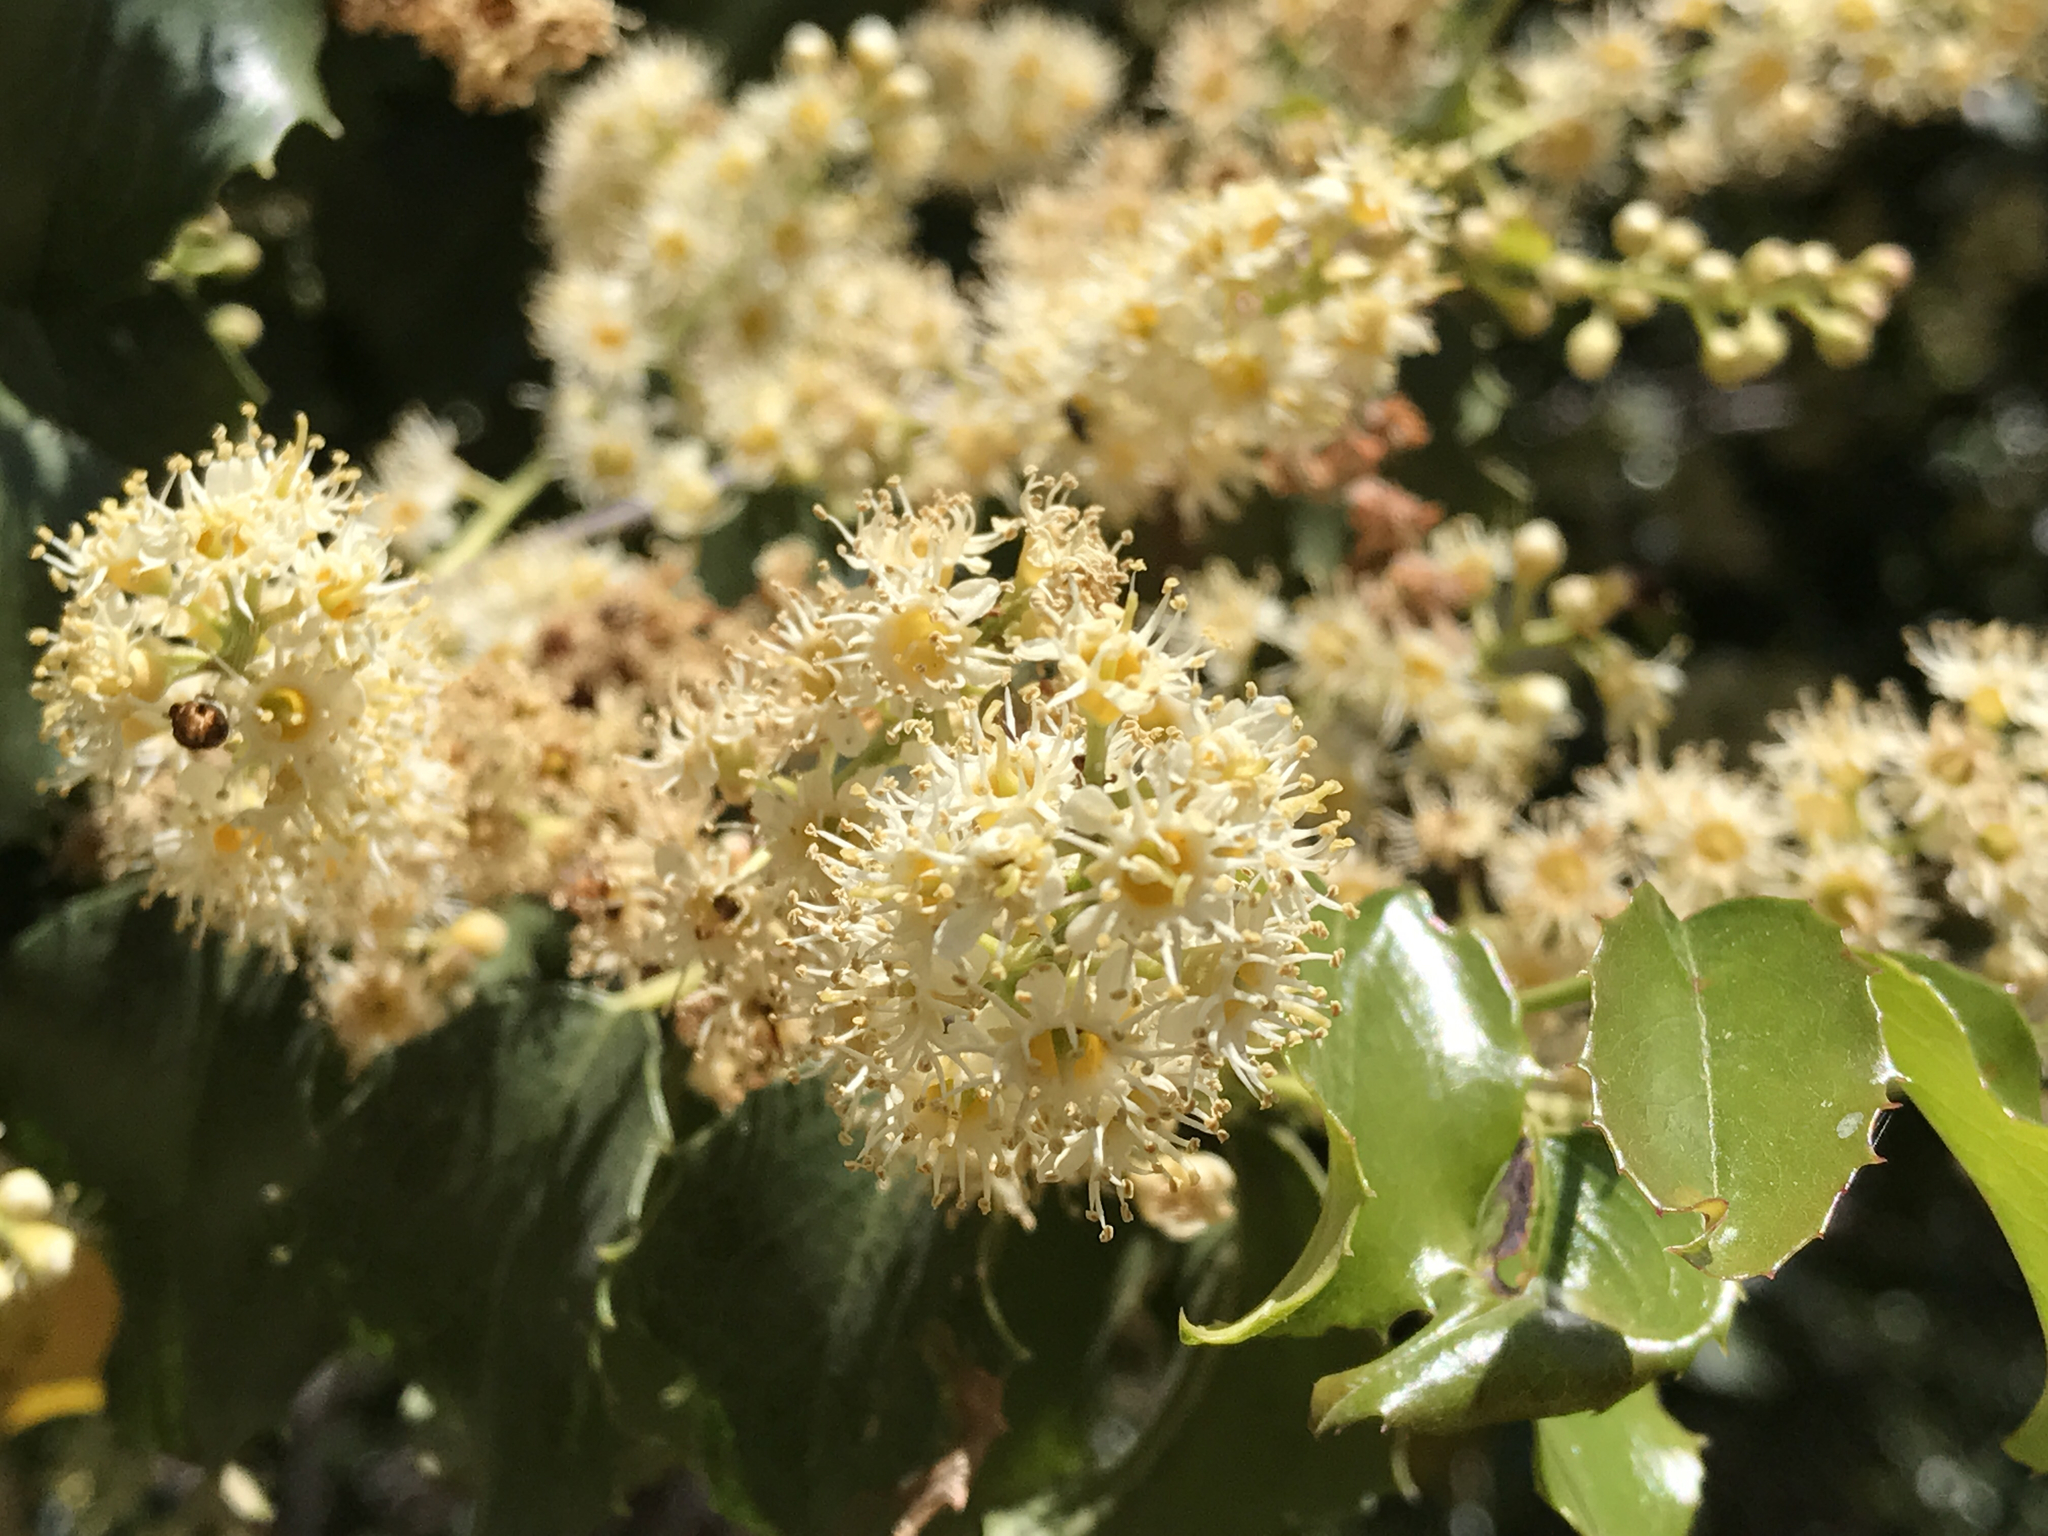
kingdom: Plantae
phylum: Tracheophyta
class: Magnoliopsida
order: Rosales
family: Rosaceae
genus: Prunus
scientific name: Prunus ilicifolia
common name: Hollyleaf cherry
